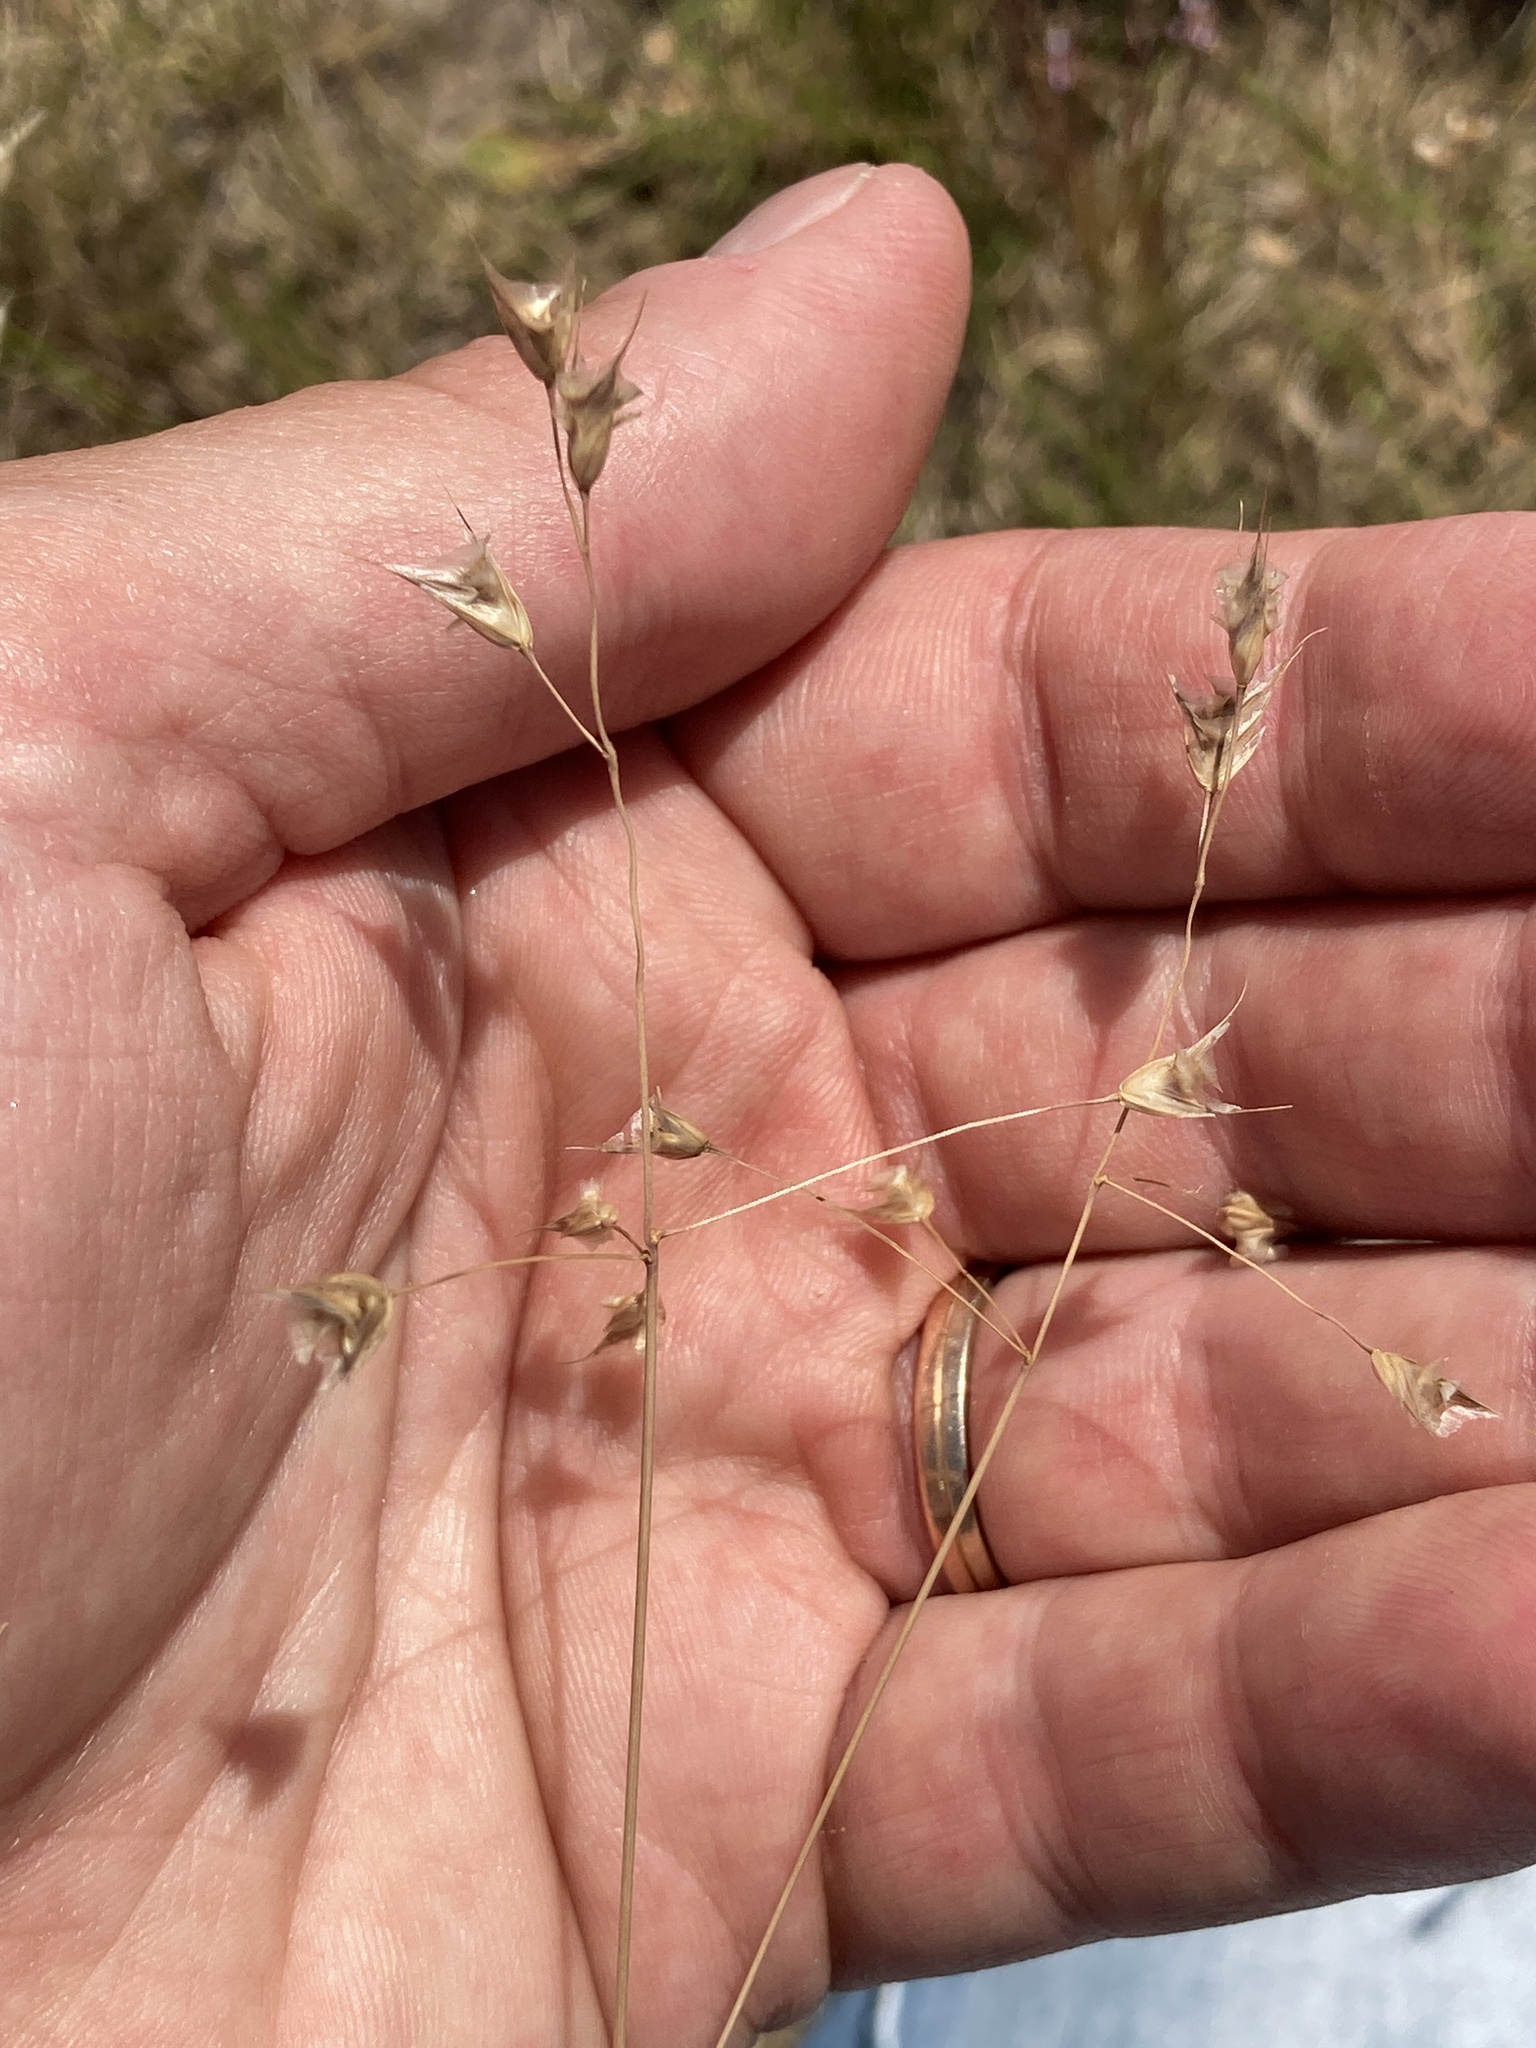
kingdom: Plantae
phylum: Tracheophyta
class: Liliopsida
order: Poales
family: Poaceae
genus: Chascolytrum
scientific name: Chascolytrum brizoides
